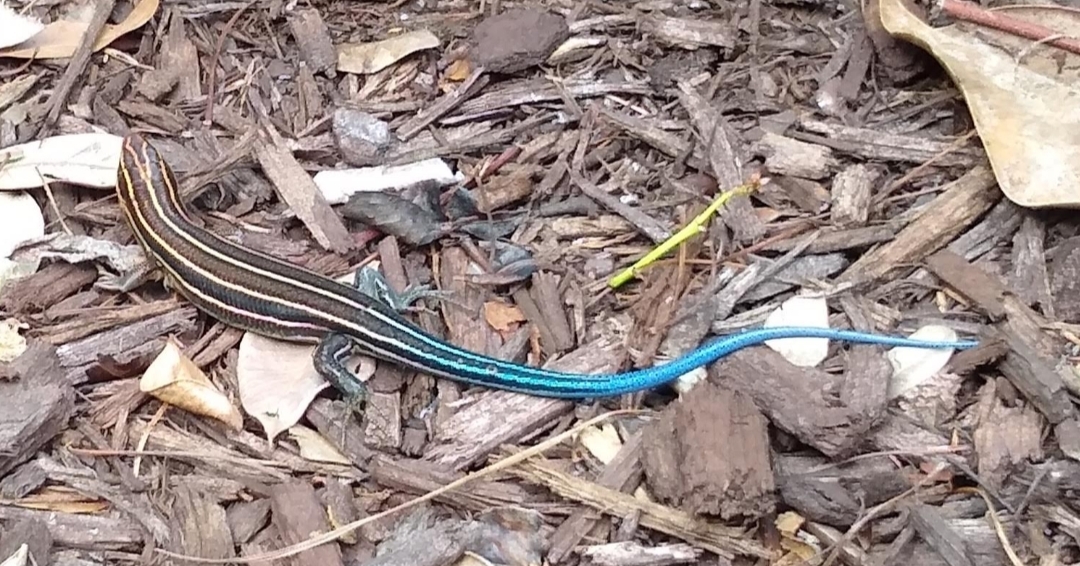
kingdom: Animalia
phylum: Chordata
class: Squamata
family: Scincidae
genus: Plestiodon
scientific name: Plestiodon laticeps
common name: Broadhead skink
